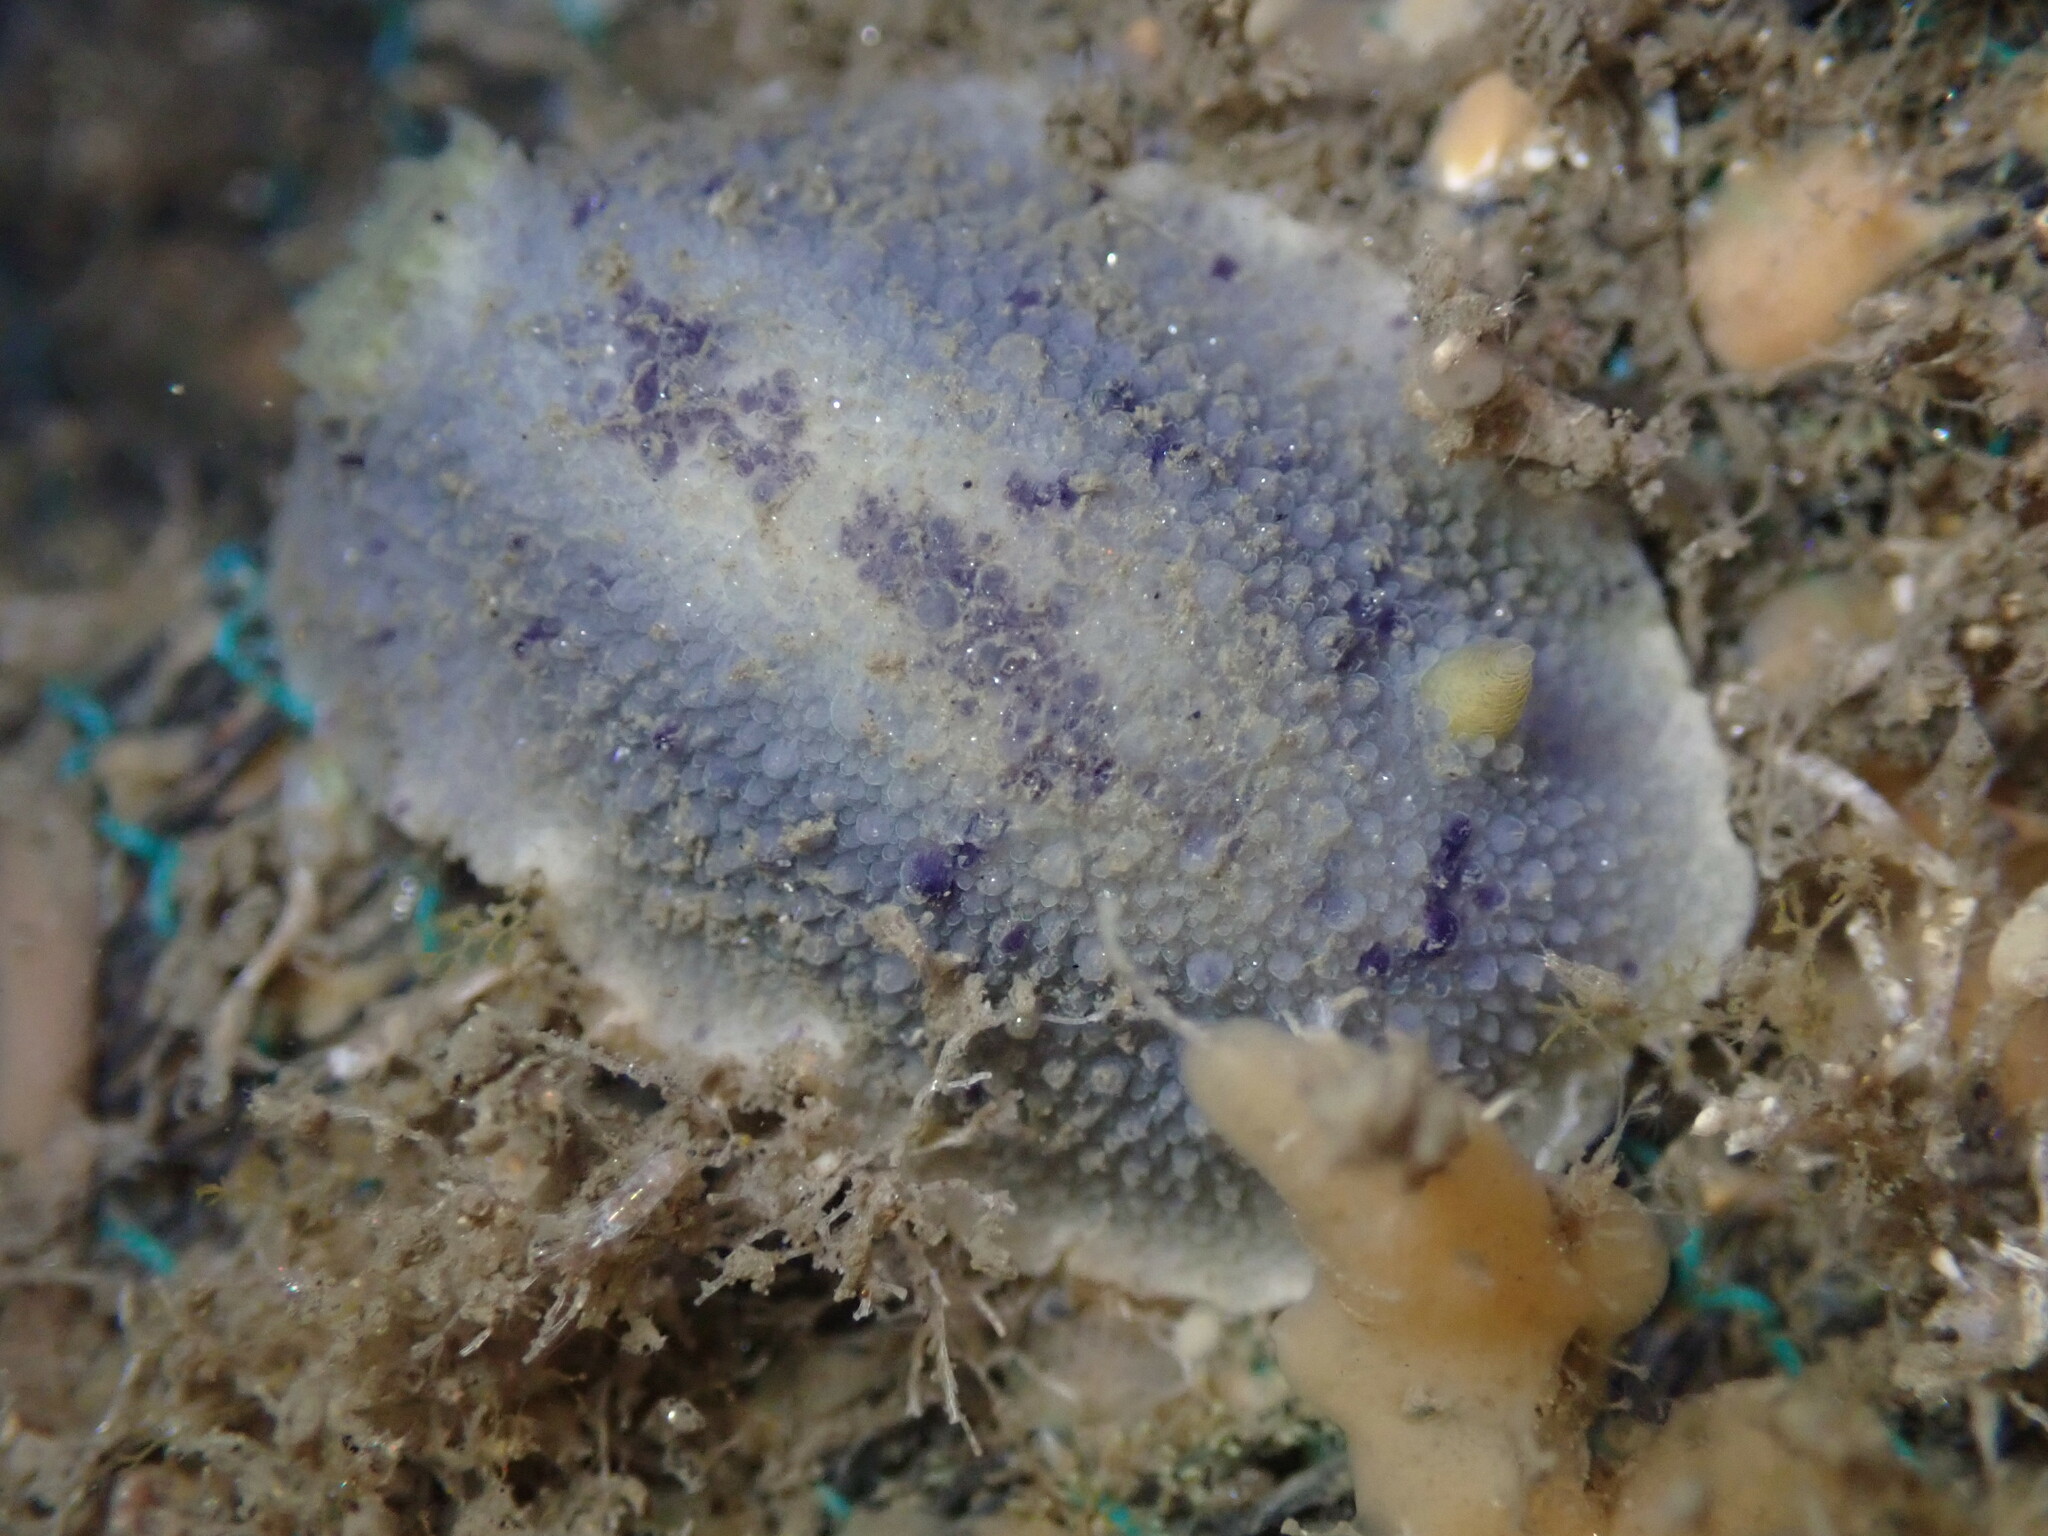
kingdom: Animalia
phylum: Mollusca
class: Gastropoda
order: Nudibranchia
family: Dorididae
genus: Doris
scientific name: Doris montereyensis
